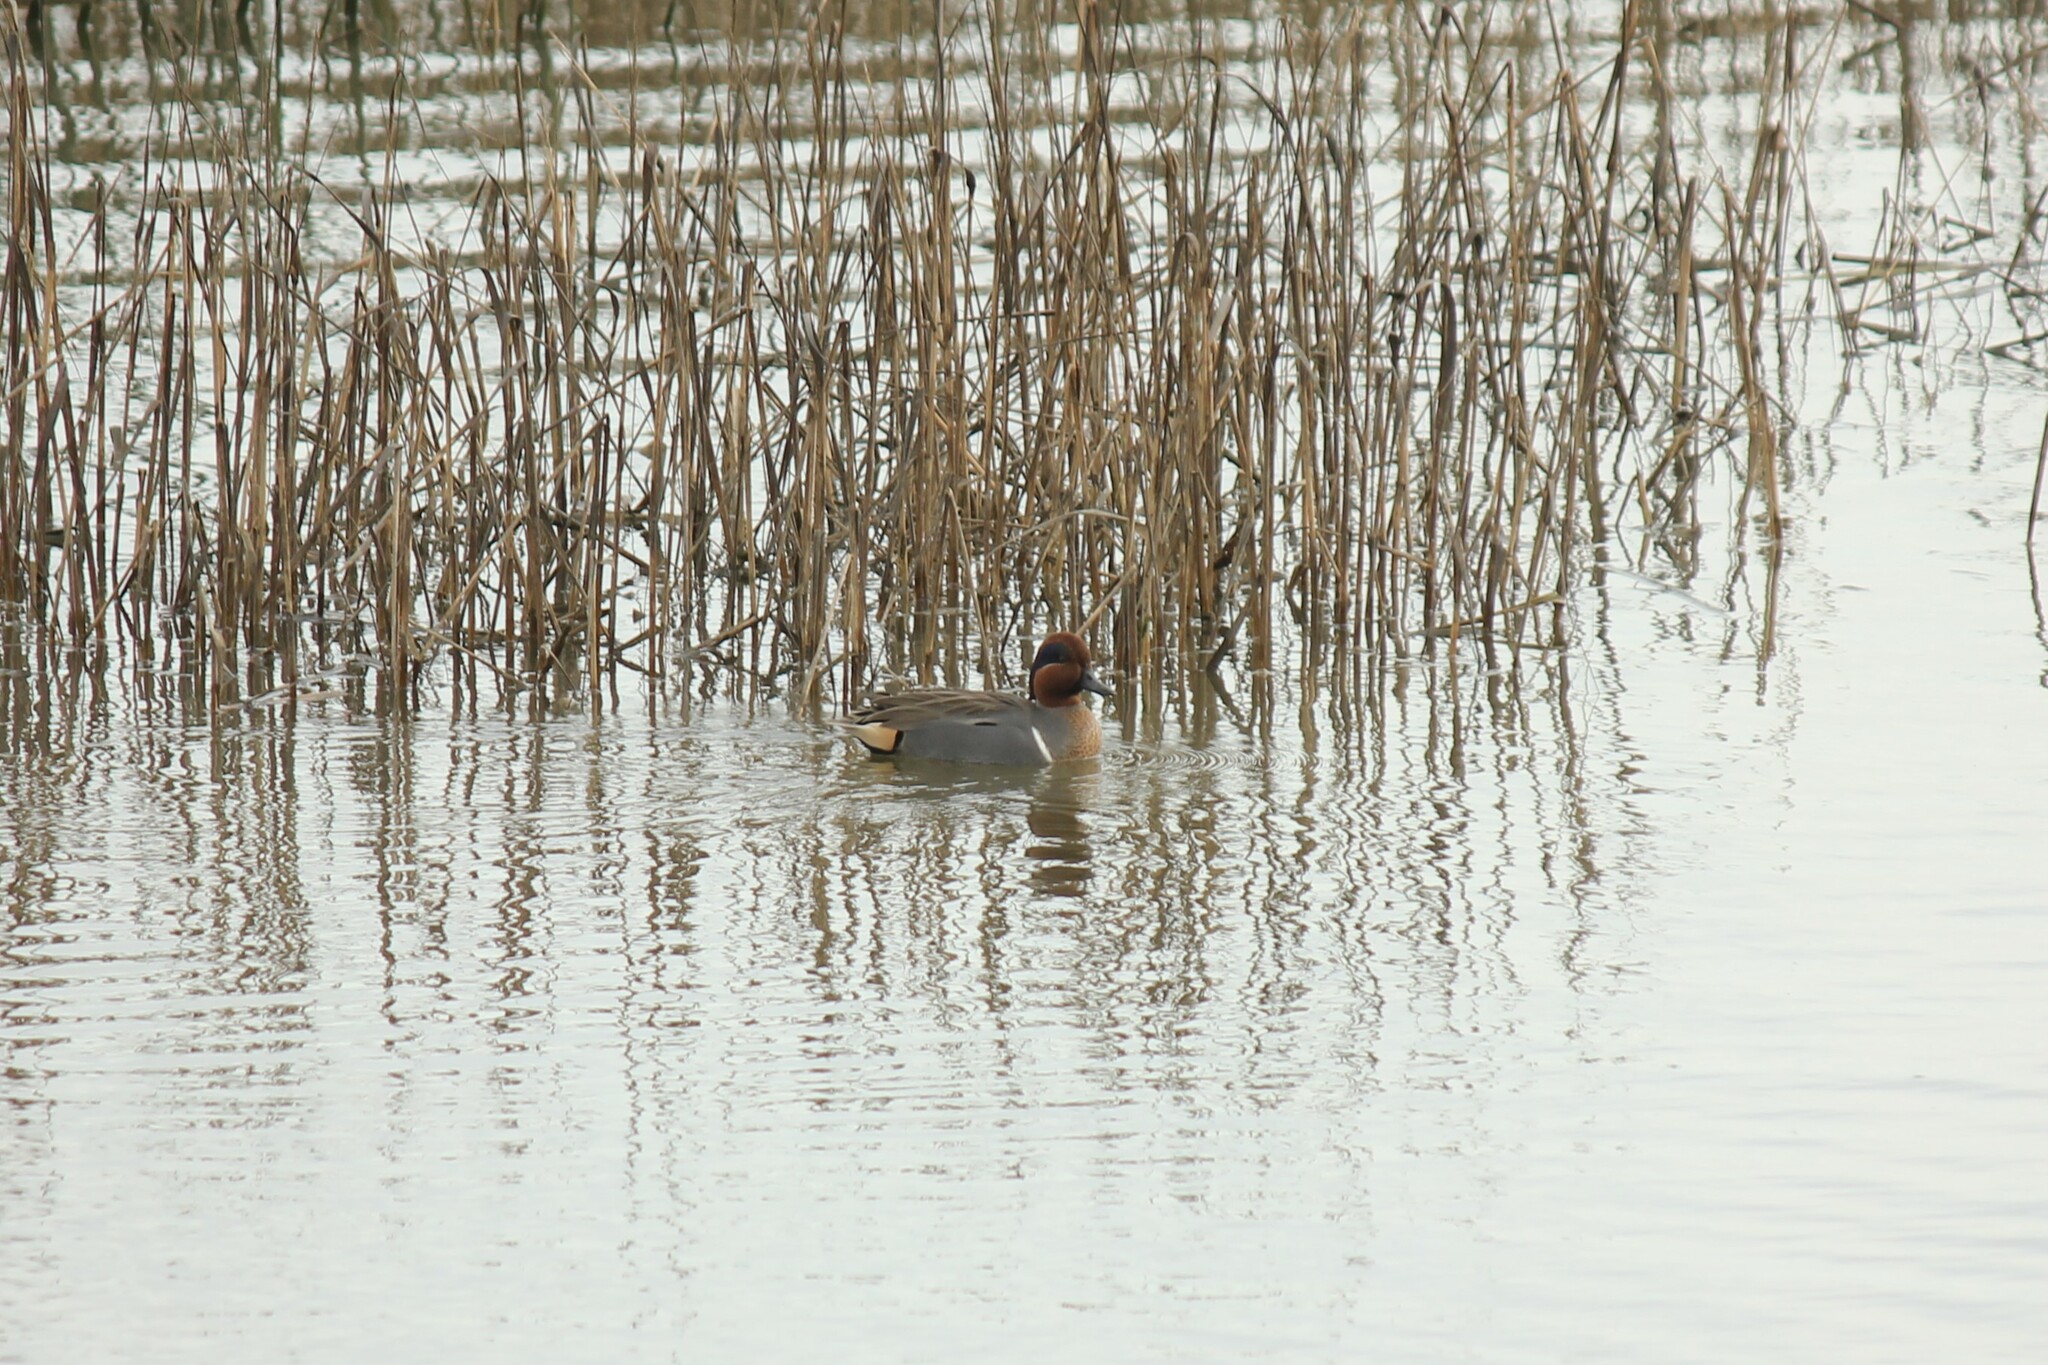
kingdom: Animalia
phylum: Chordata
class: Aves
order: Anseriformes
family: Anatidae
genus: Anas
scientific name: Anas crecca
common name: Eurasian teal
